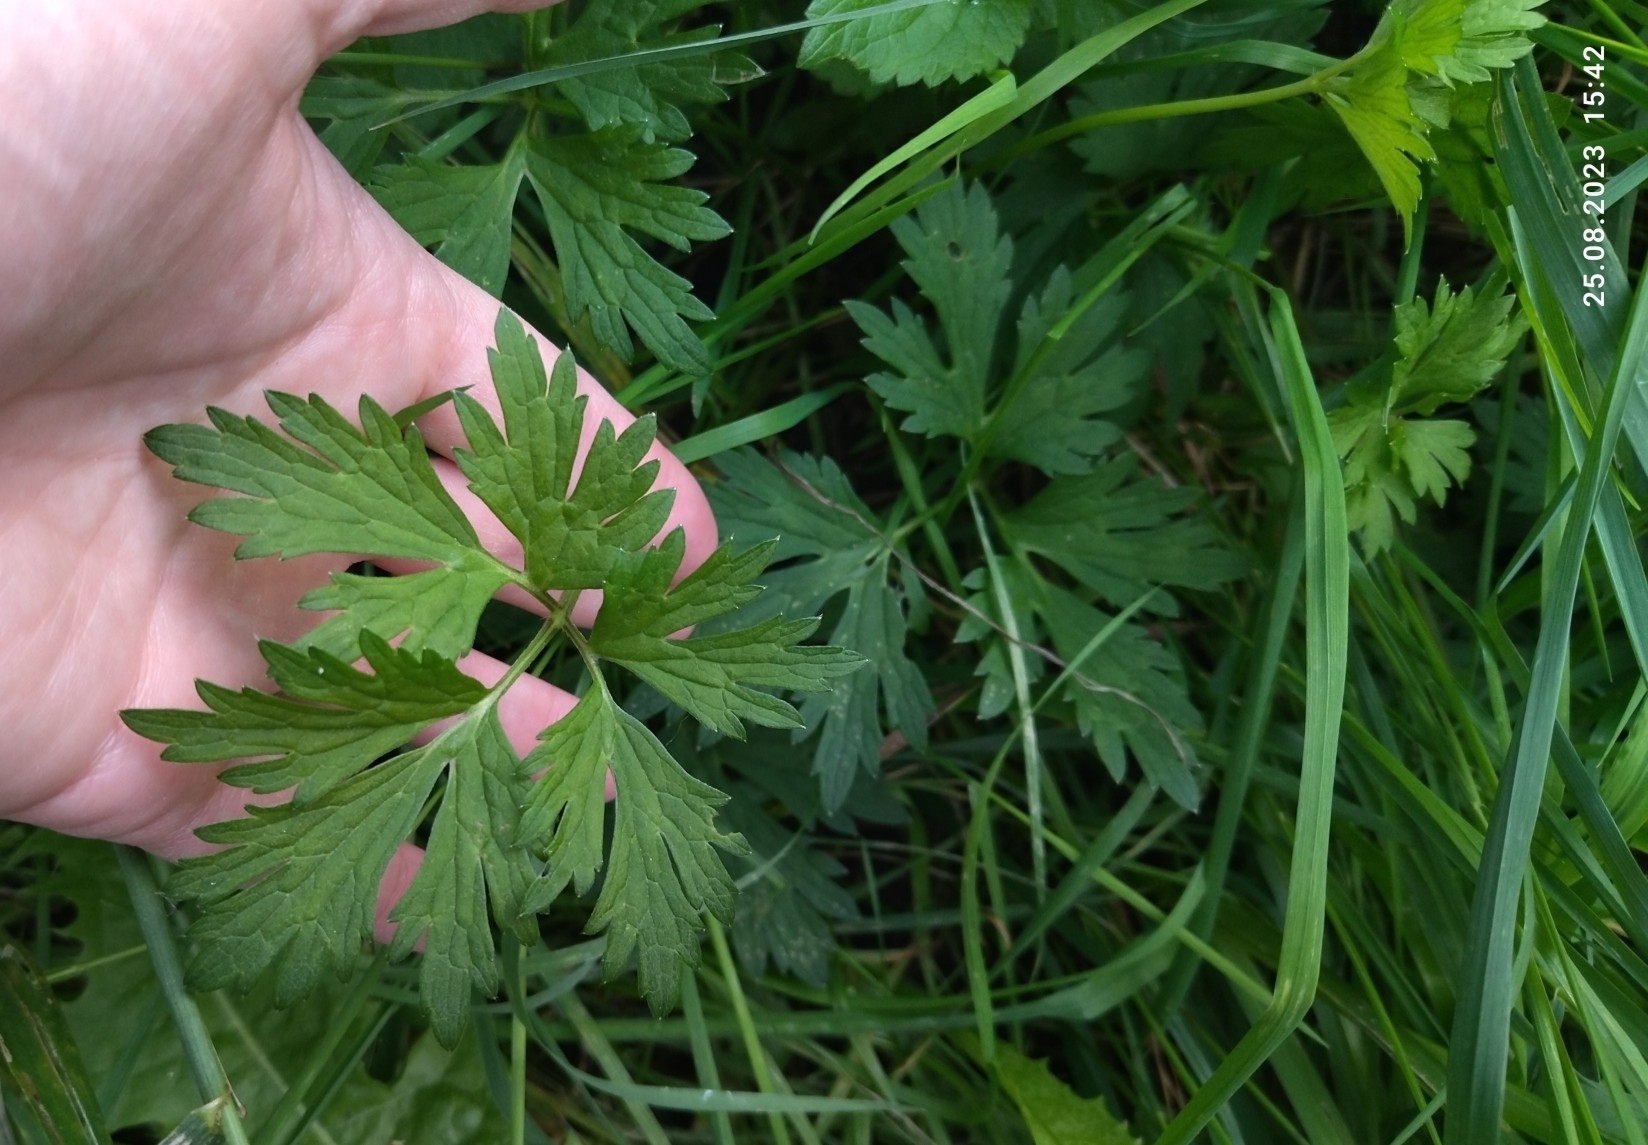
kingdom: Plantae
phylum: Tracheophyta
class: Magnoliopsida
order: Ranunculales
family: Ranunculaceae
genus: Ranunculus
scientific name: Ranunculus repens
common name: Creeping buttercup
